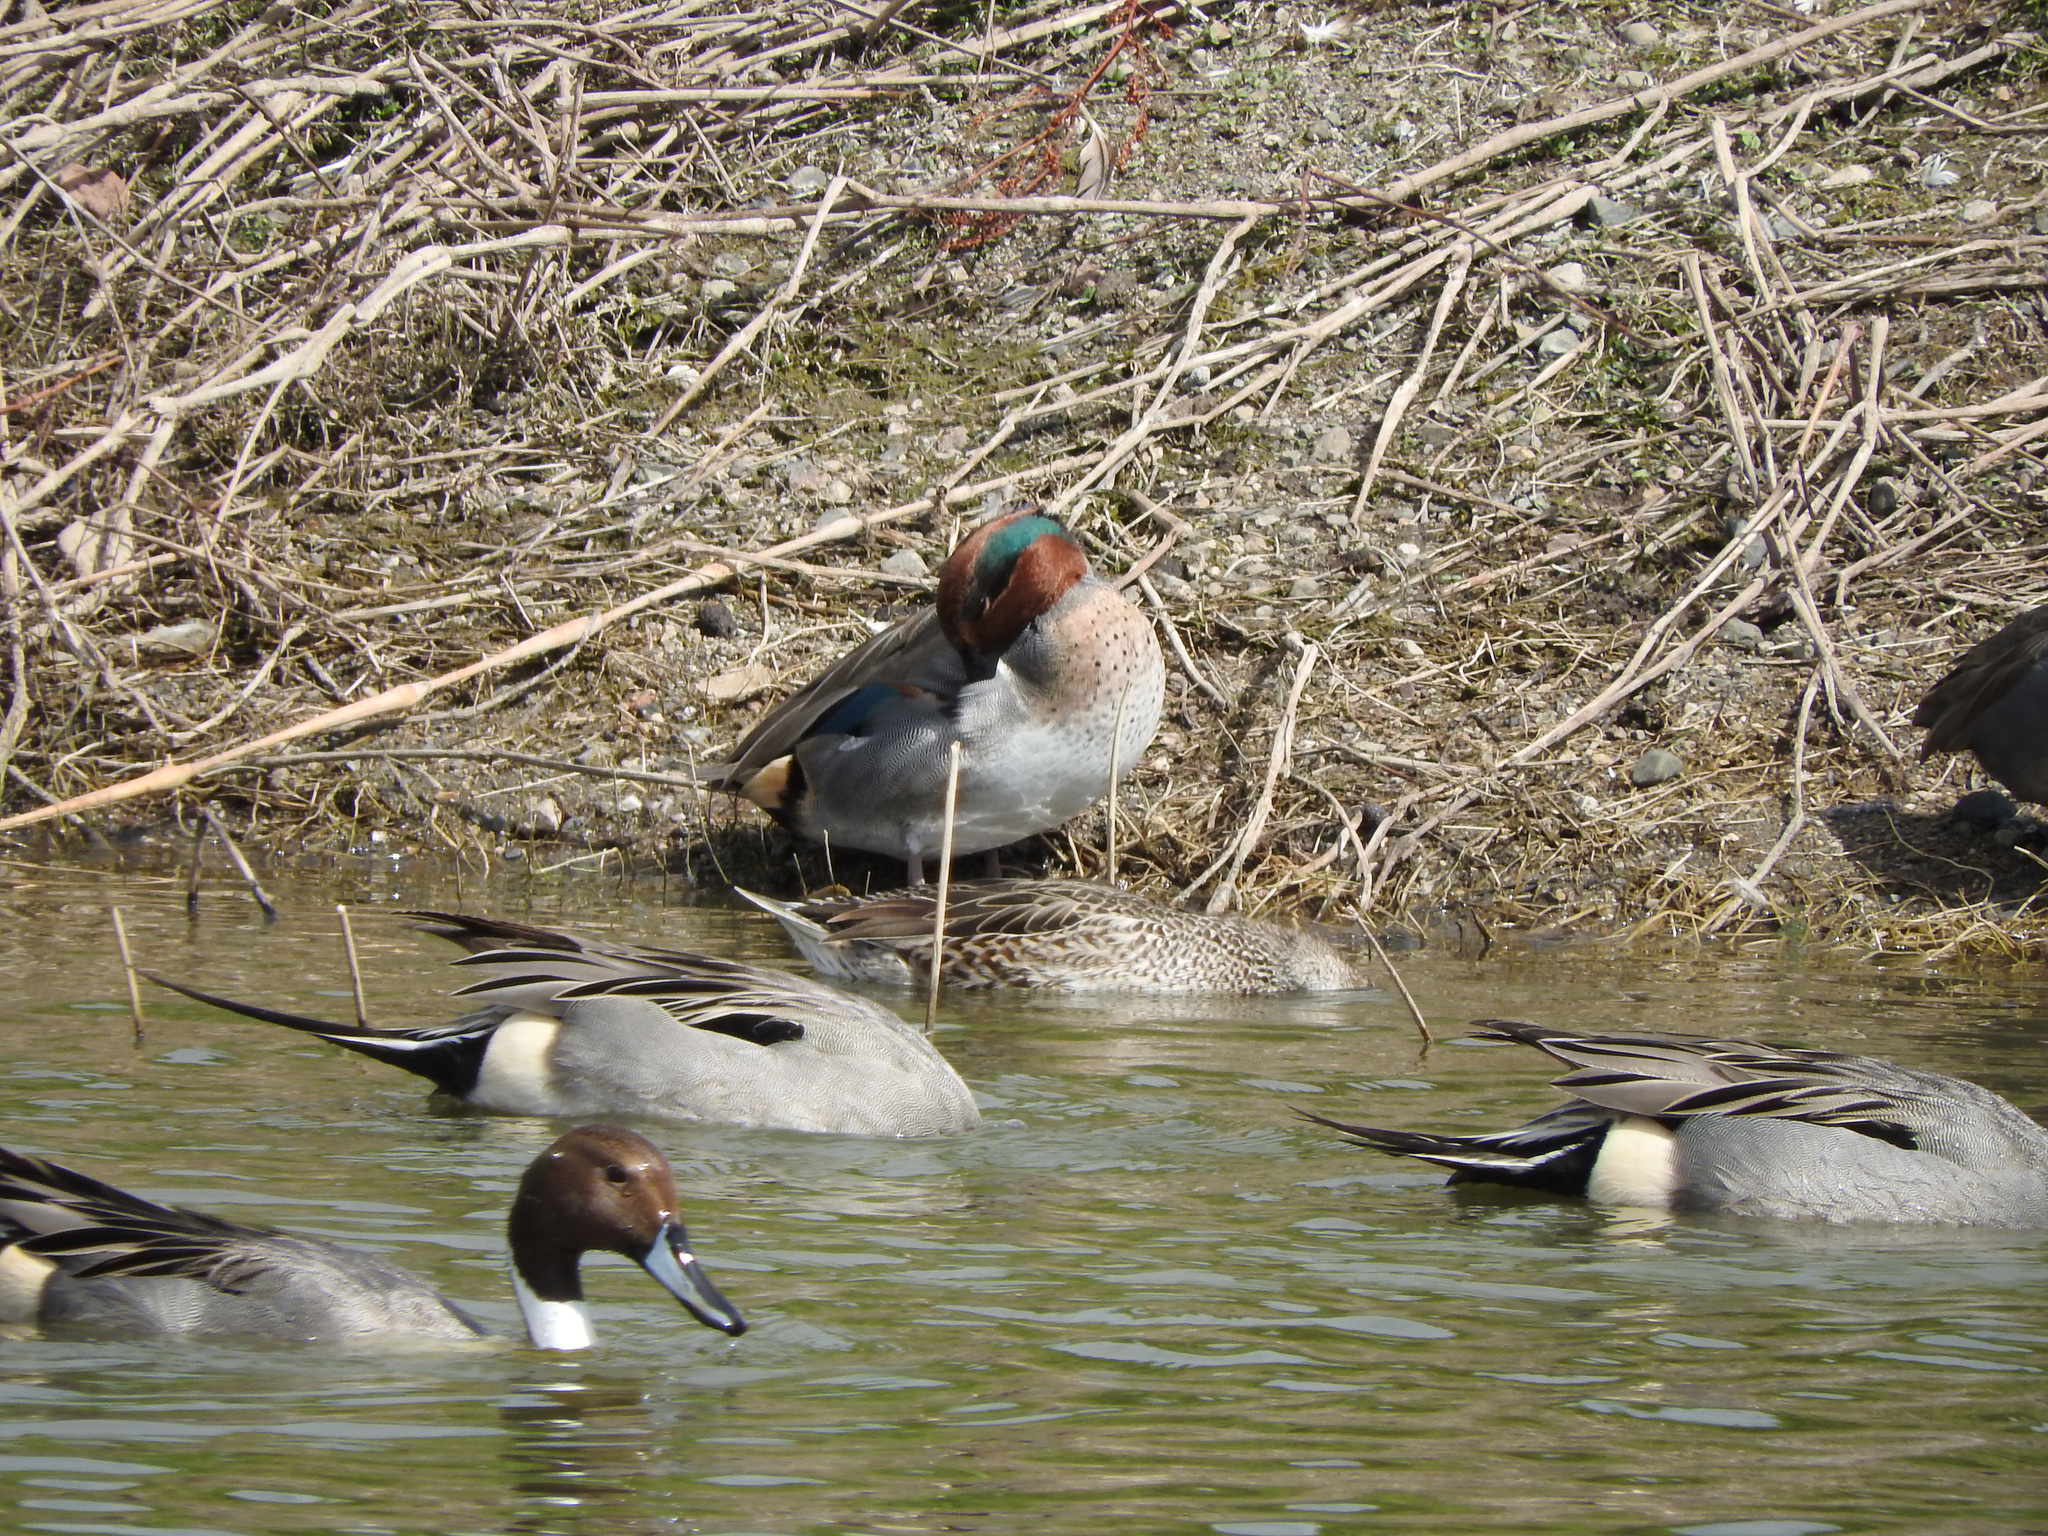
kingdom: Animalia
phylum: Chordata
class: Aves
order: Anseriformes
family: Anatidae
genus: Anas
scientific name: Anas crecca
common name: Eurasian teal
